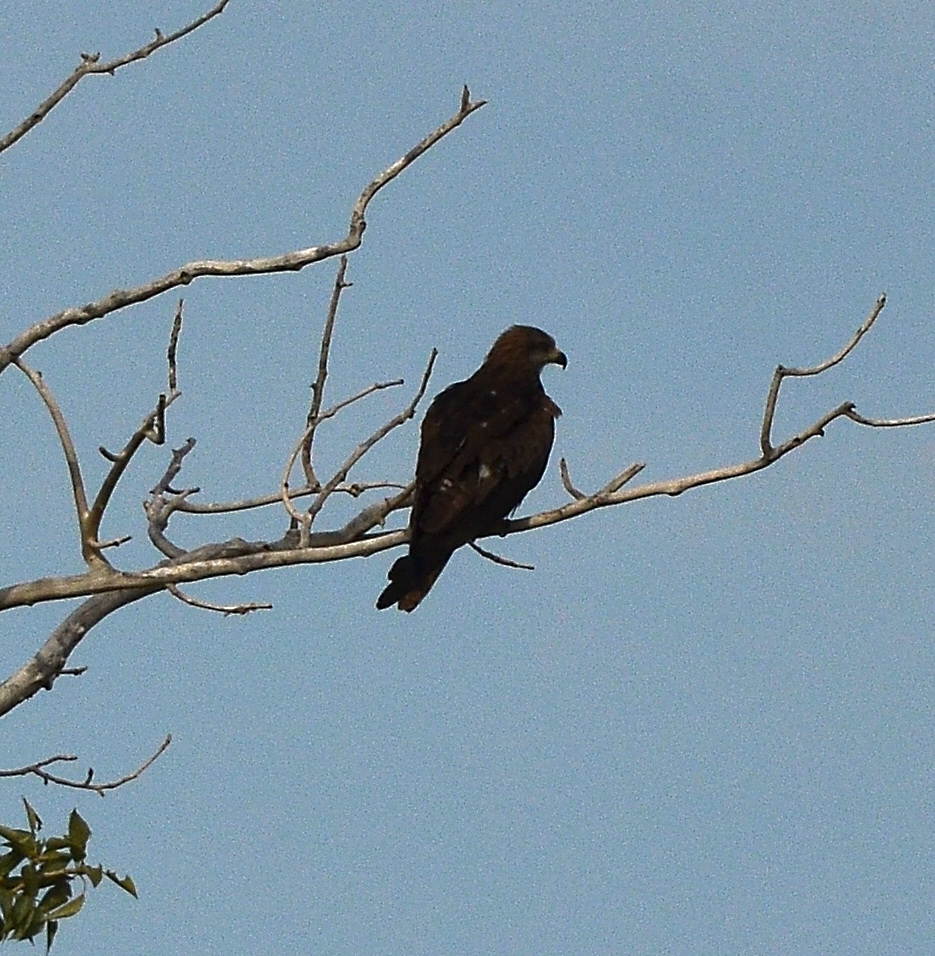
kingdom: Animalia
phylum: Chordata
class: Aves
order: Accipitriformes
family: Accipitridae
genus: Milvus
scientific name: Milvus migrans
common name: Black kite
